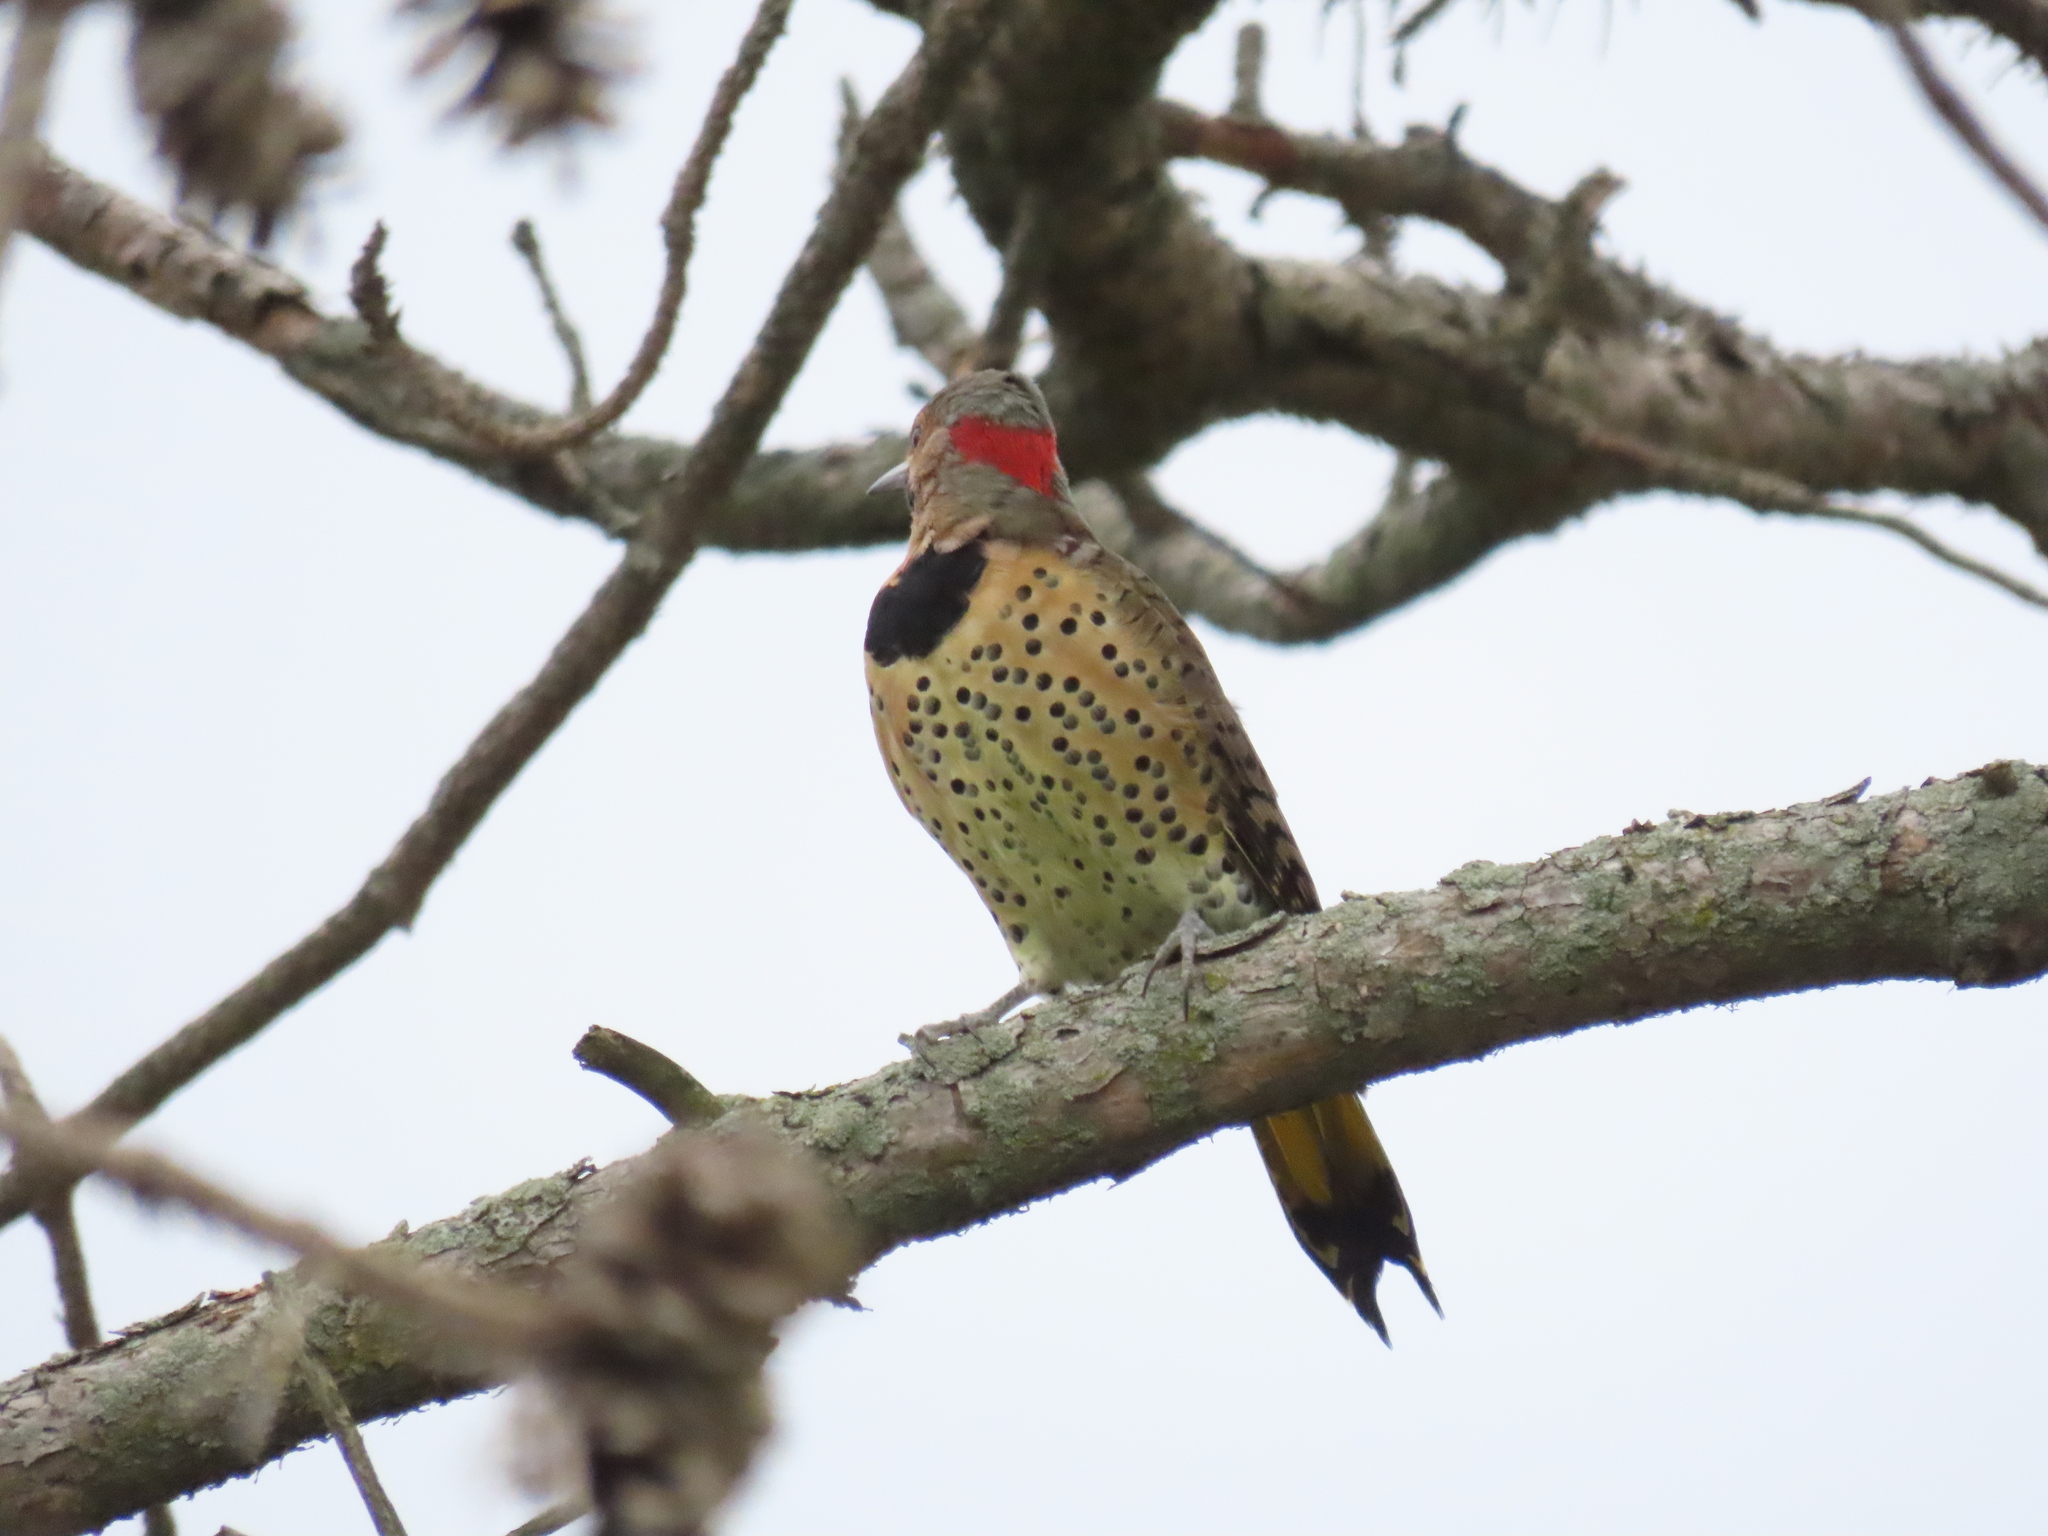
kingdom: Animalia
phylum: Chordata
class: Aves
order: Piciformes
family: Picidae
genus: Colaptes
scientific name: Colaptes auratus
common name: Northern flicker
